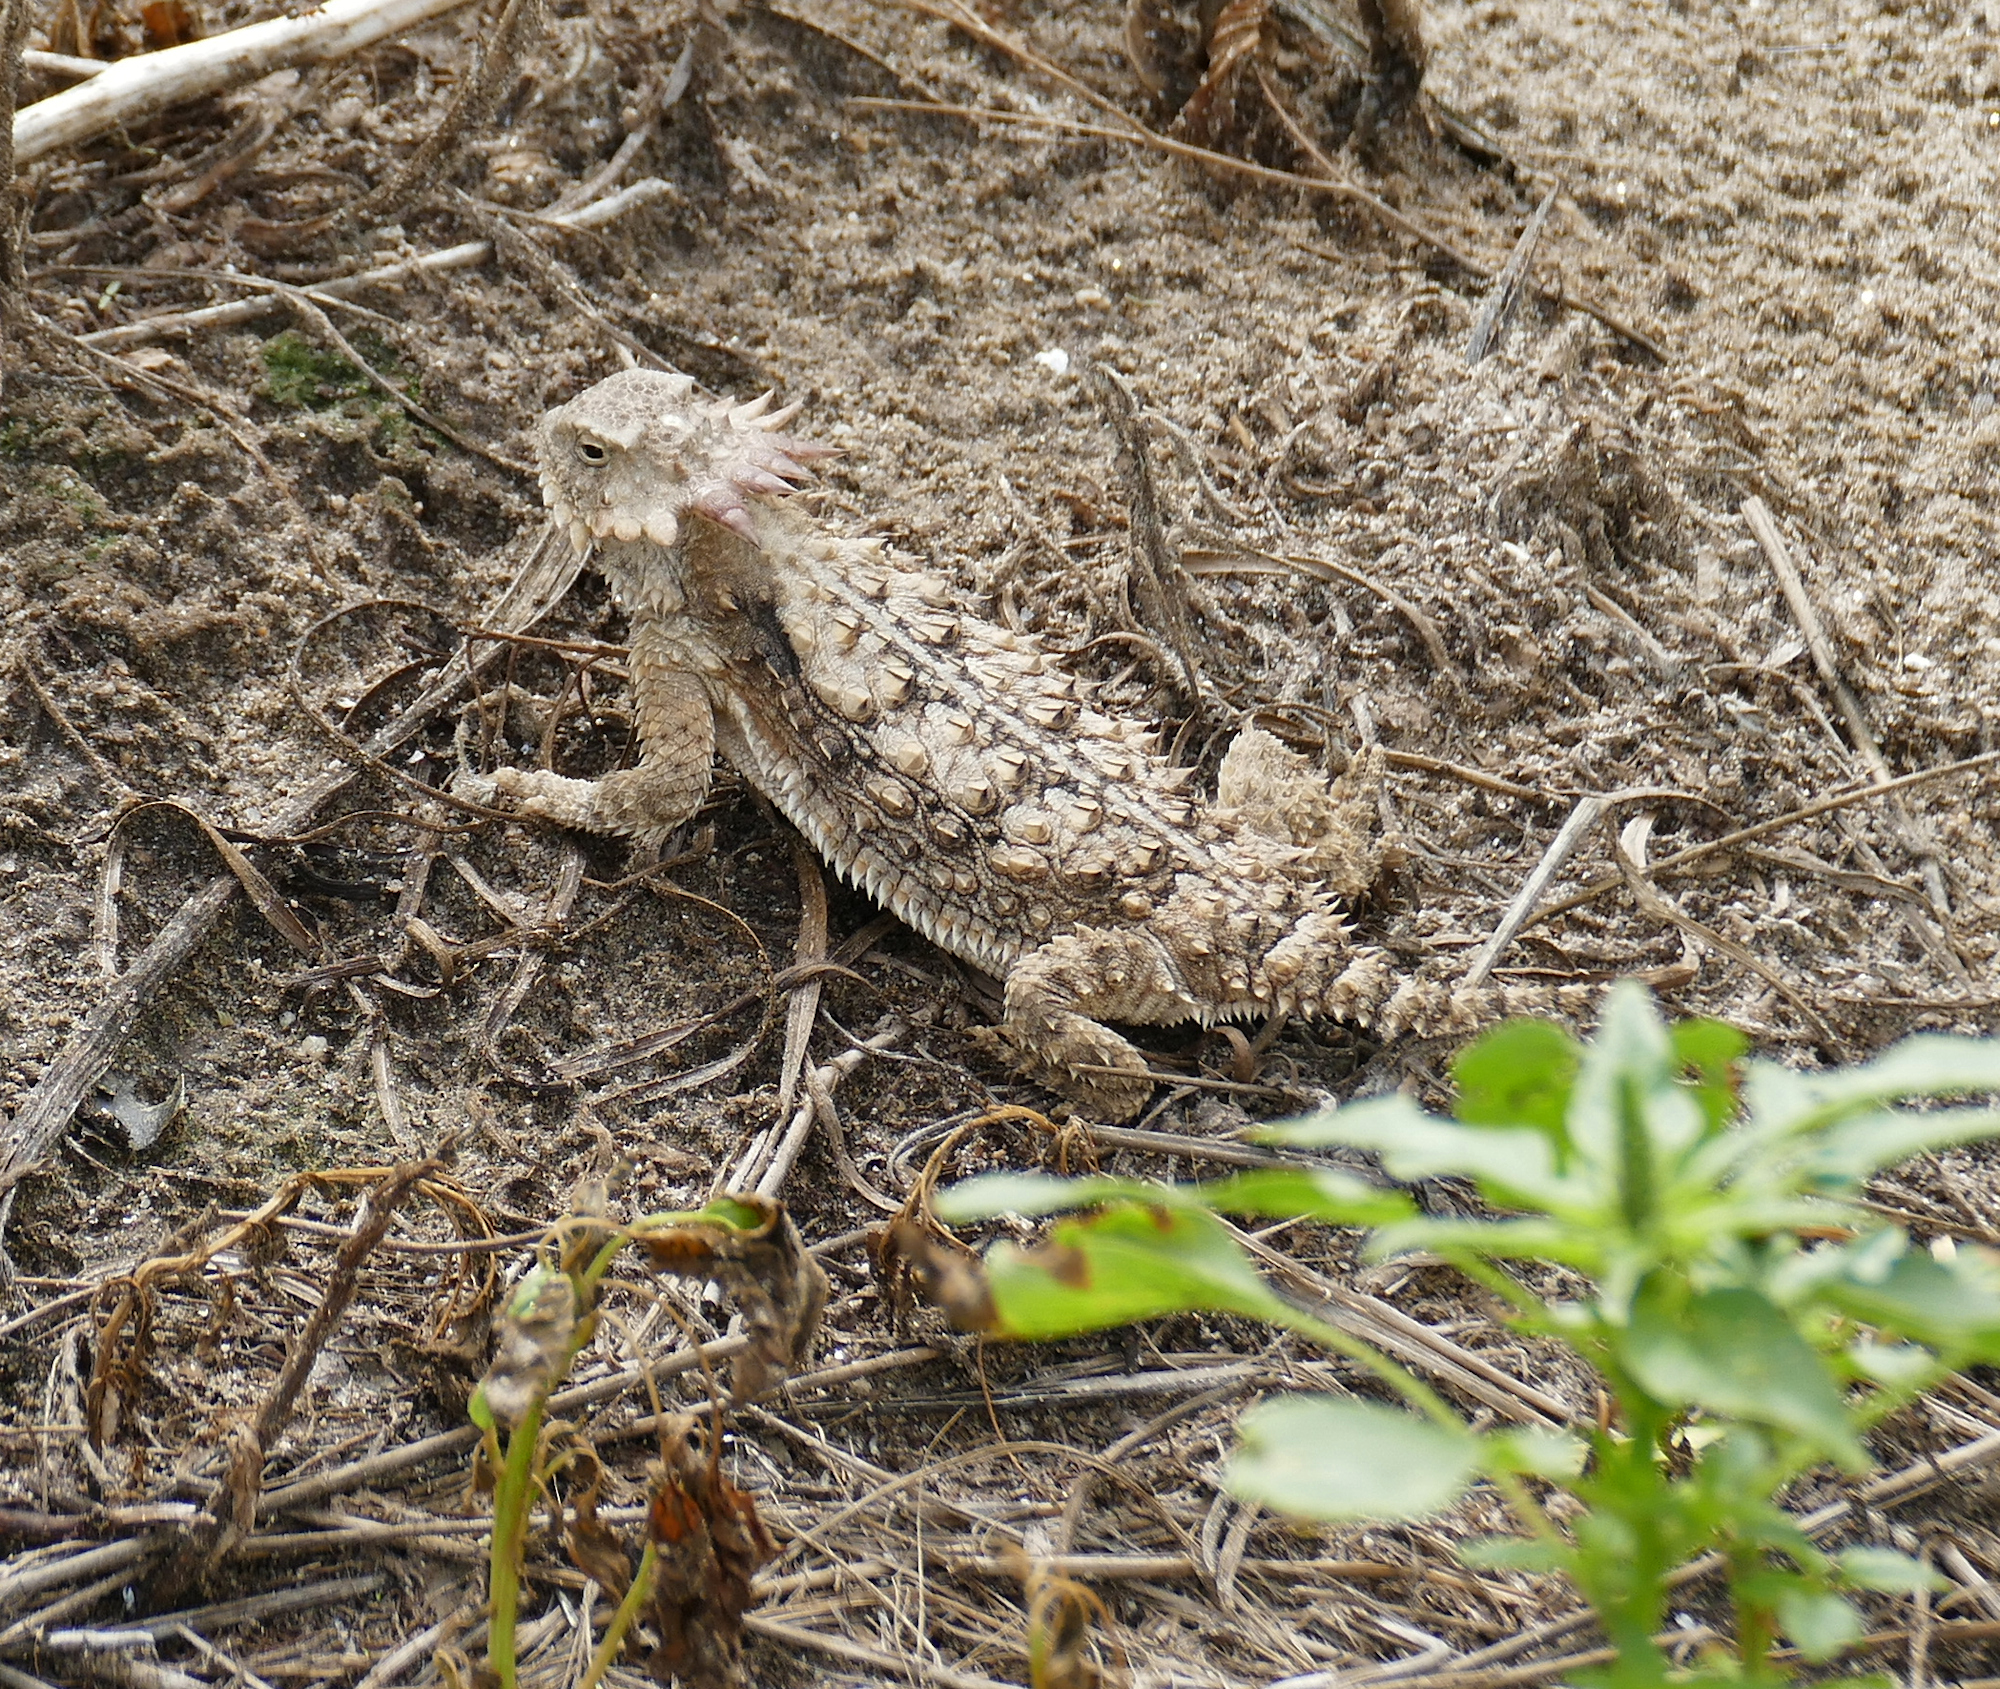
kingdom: Animalia
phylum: Chordata
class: Squamata
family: Phrynosomatidae
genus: Phrynosoma
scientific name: Phrynosoma solare
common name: Regal horned lizard
